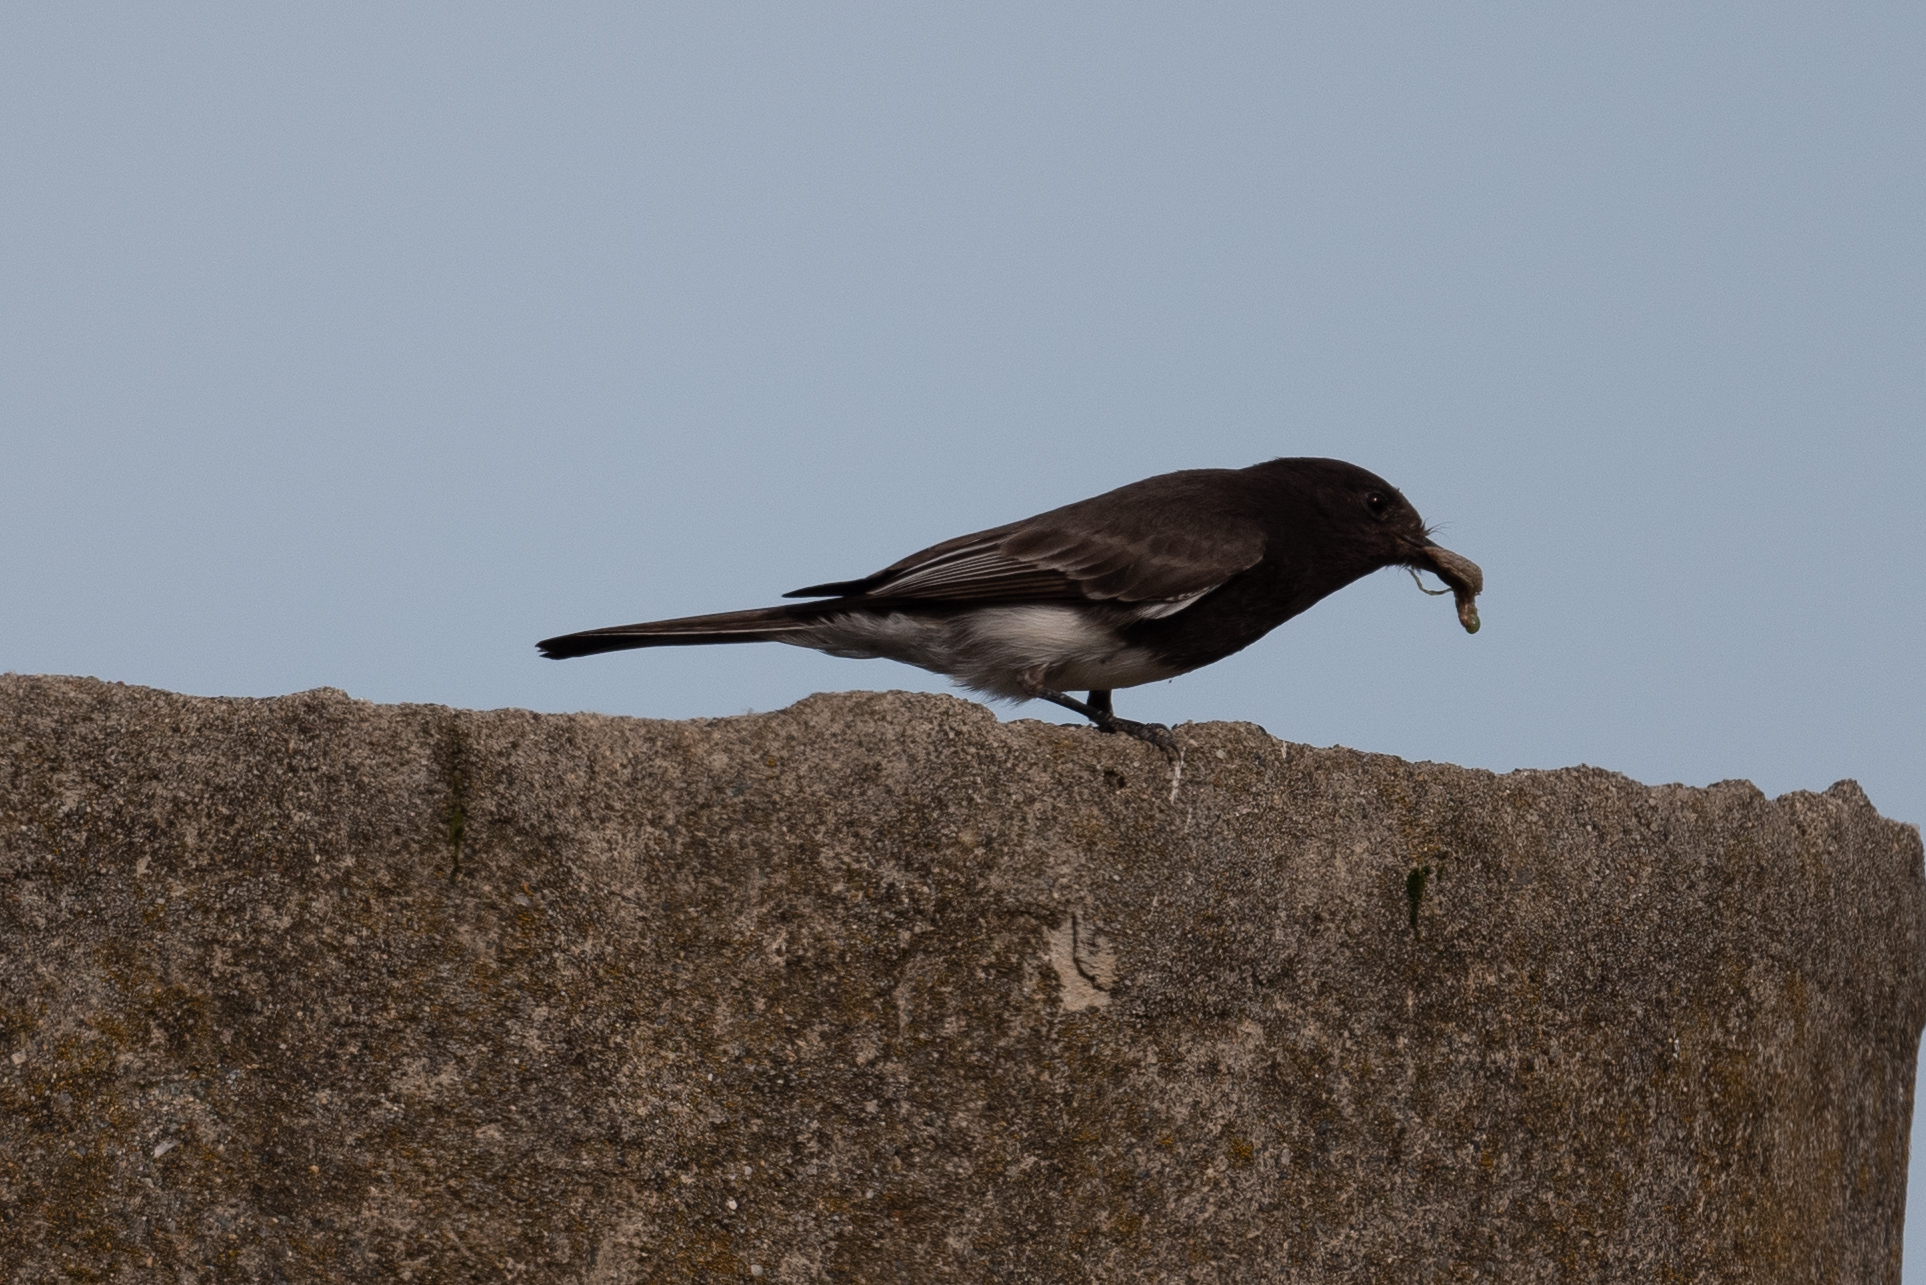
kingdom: Animalia
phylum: Chordata
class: Aves
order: Passeriformes
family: Tyrannidae
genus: Sayornis
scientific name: Sayornis nigricans
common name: Black phoebe
